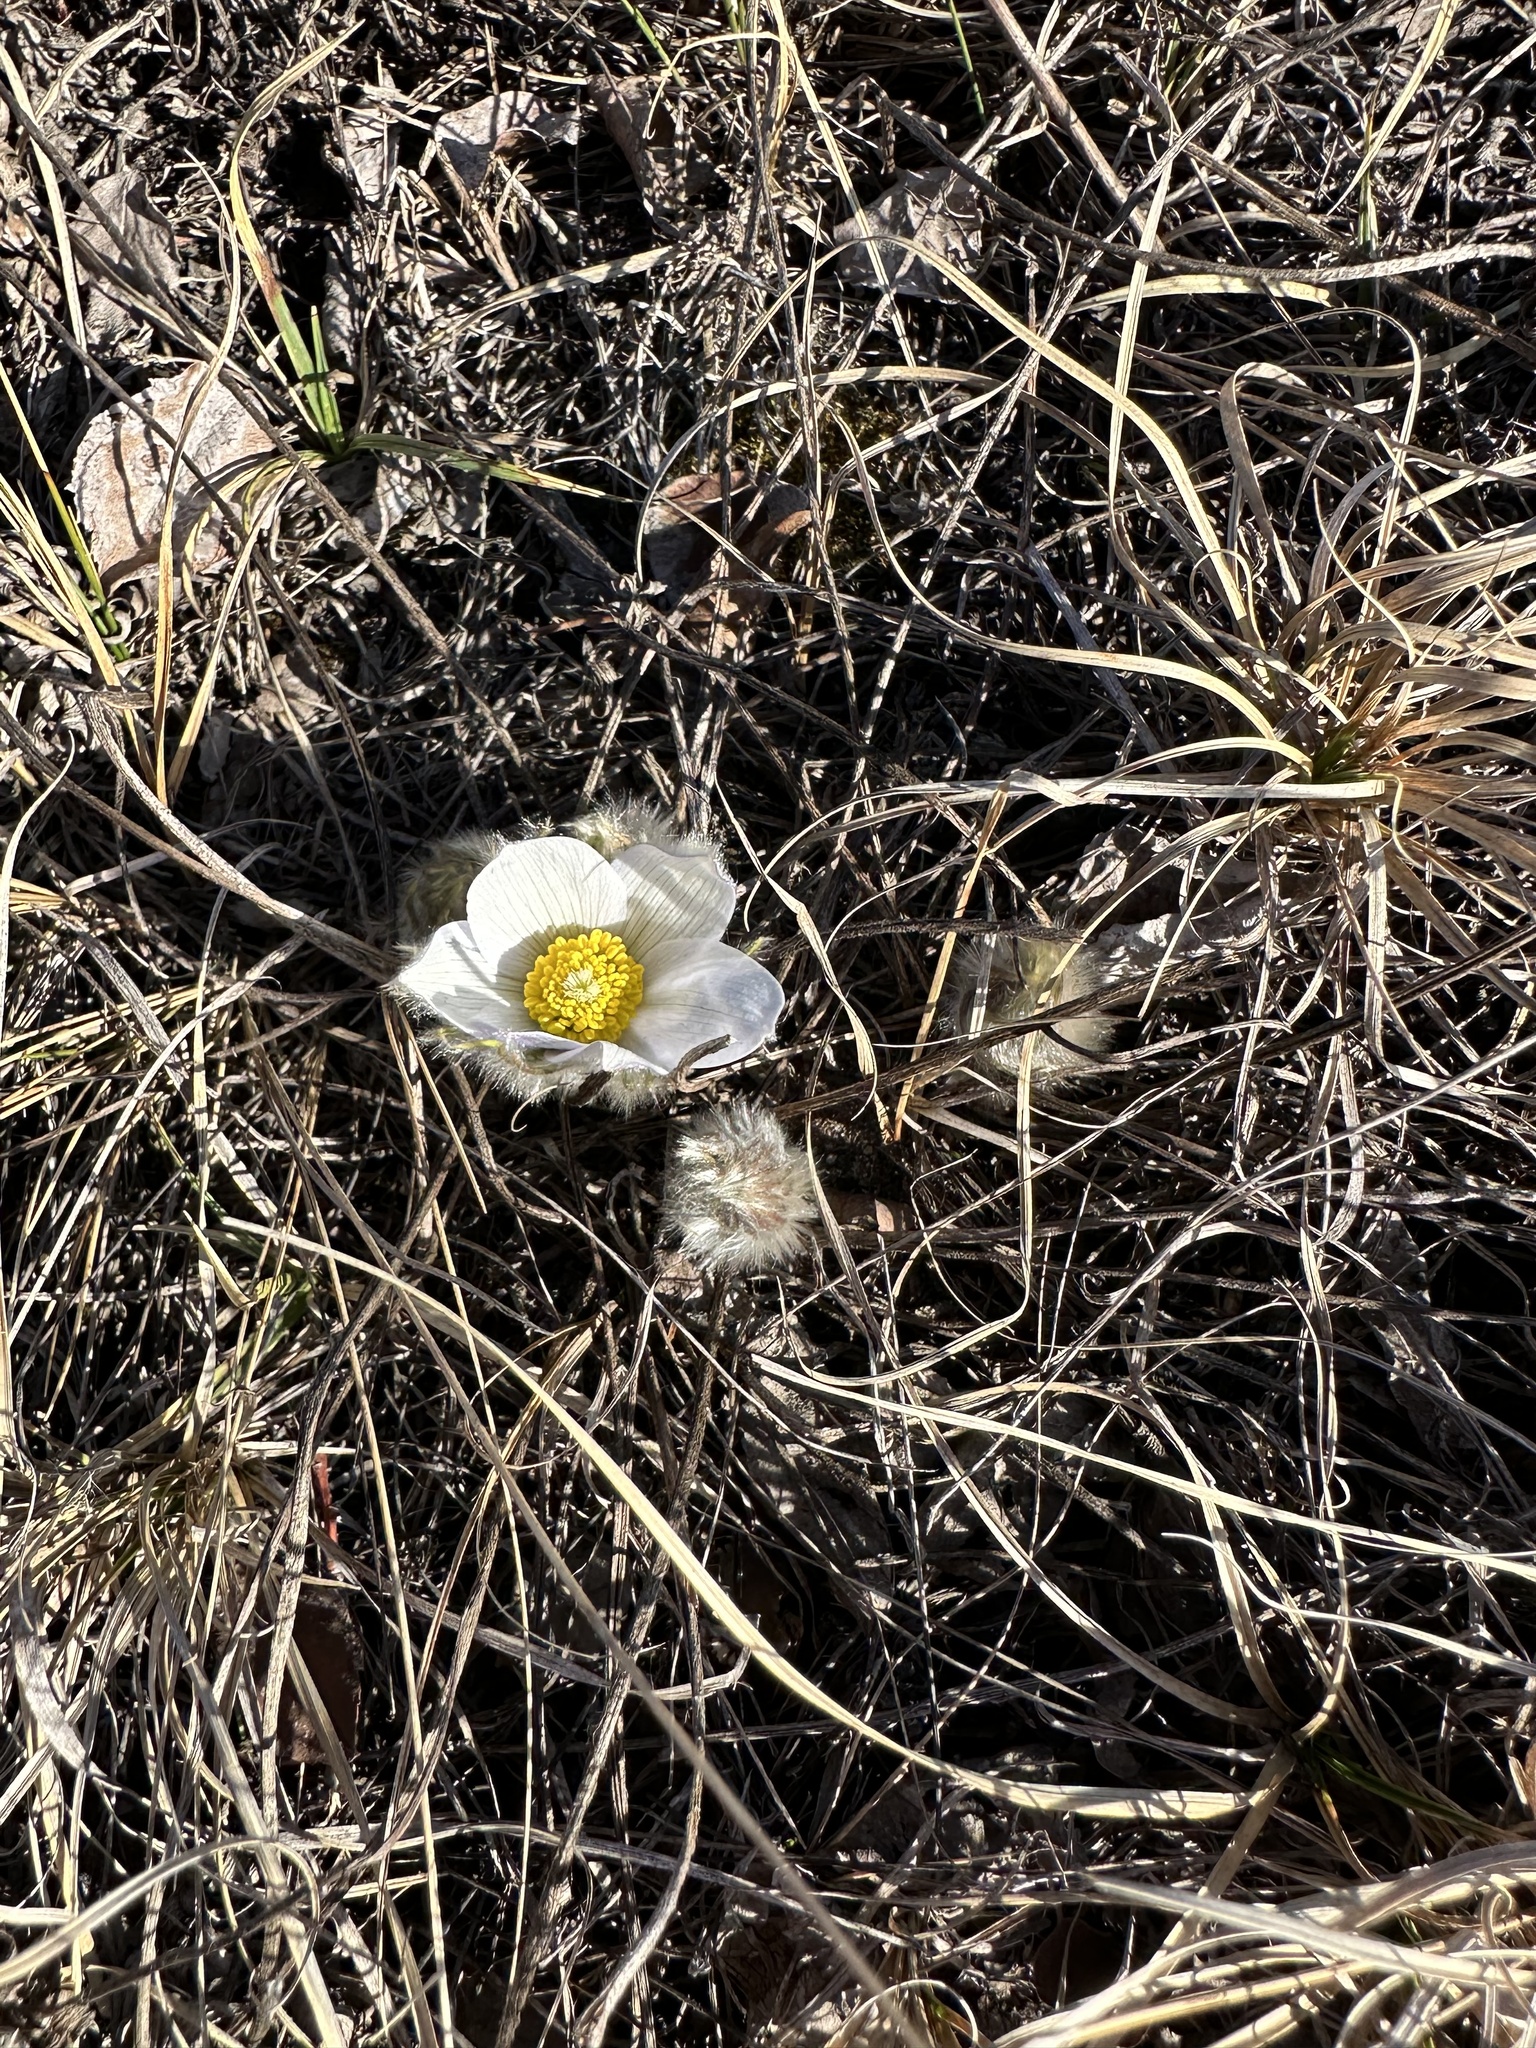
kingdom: Plantae
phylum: Tracheophyta
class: Magnoliopsida
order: Ranunculales
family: Ranunculaceae
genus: Pulsatilla
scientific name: Pulsatilla nuttalliana
